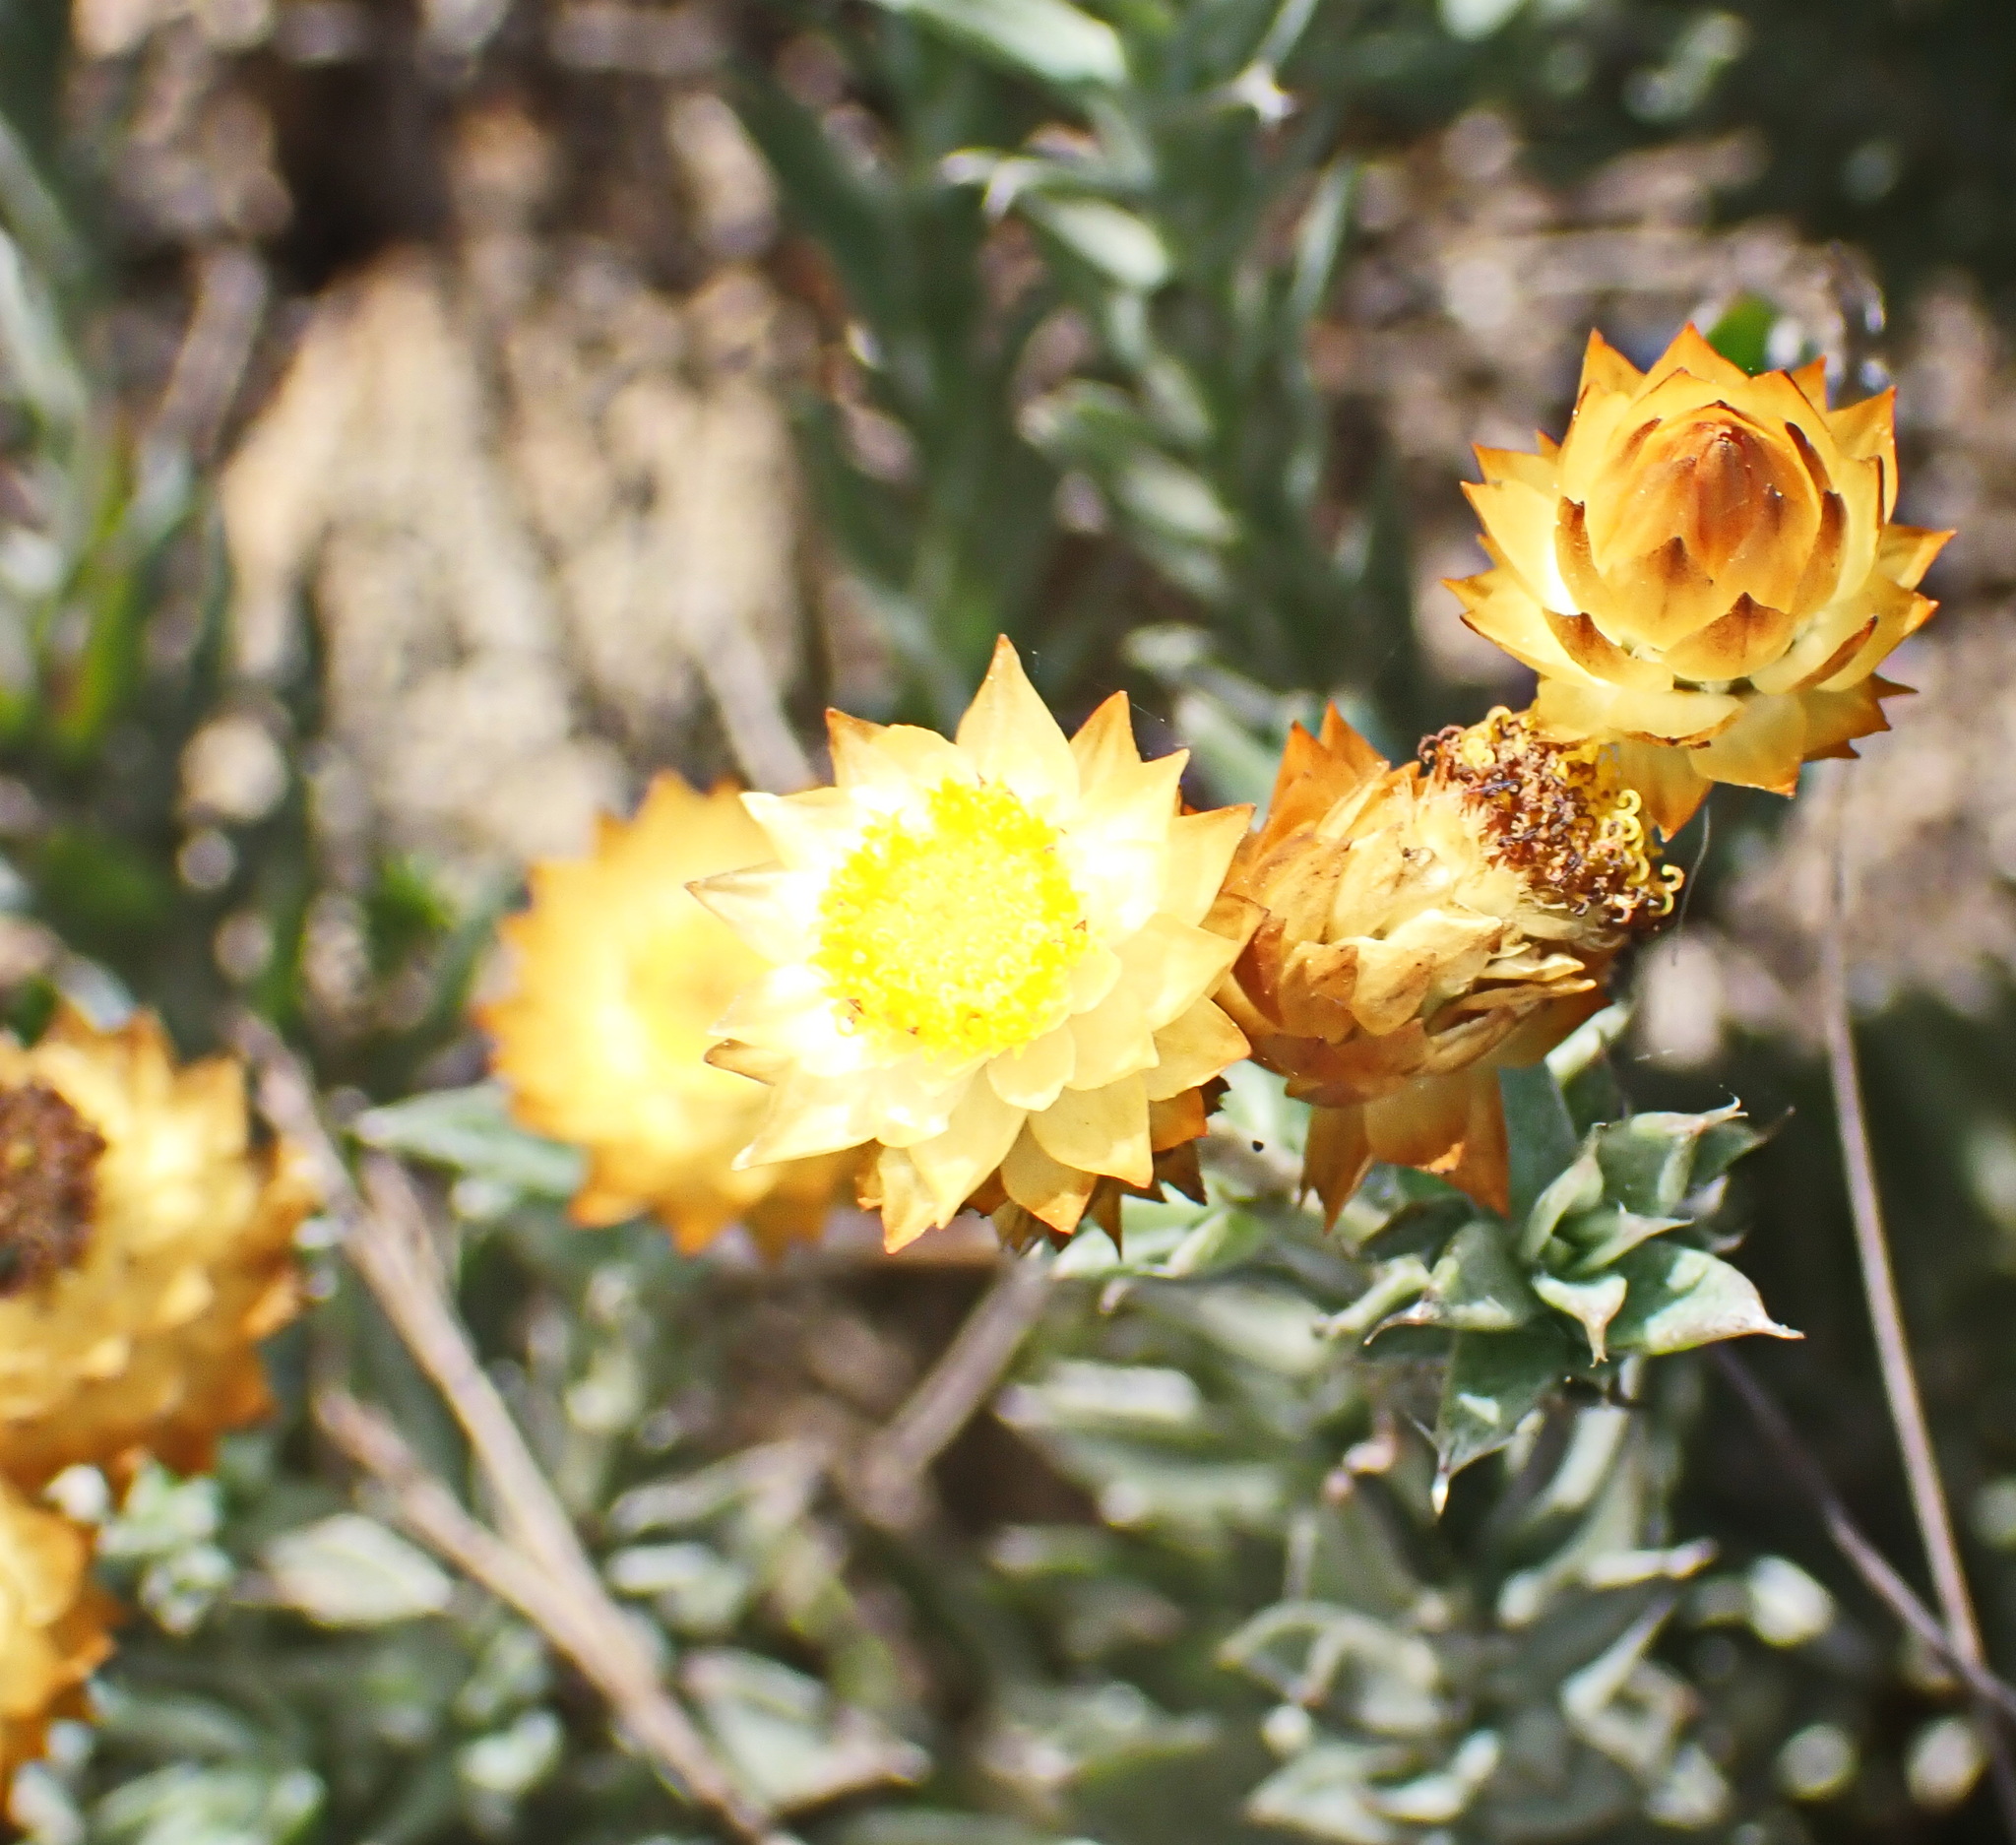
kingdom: Plantae
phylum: Tracheophyta
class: Magnoliopsida
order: Asterales
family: Asteraceae
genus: Achyranthemum
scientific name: Achyranthemum mucronatum
